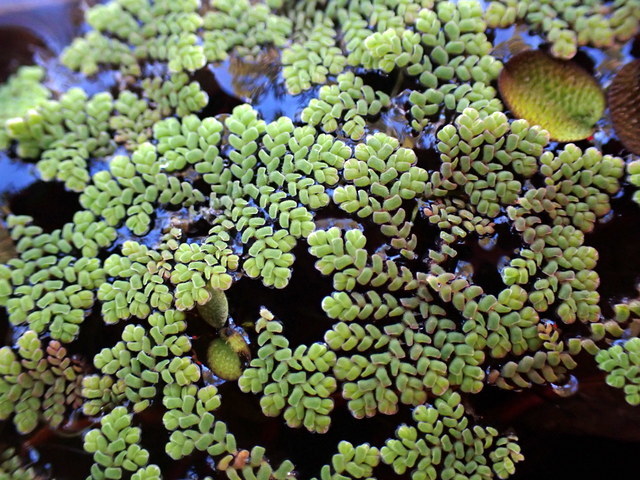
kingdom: Plantae
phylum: Tracheophyta
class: Polypodiopsida
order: Salviniales
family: Salviniaceae
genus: Azolla
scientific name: Azolla pinnata
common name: Ferny azolla
